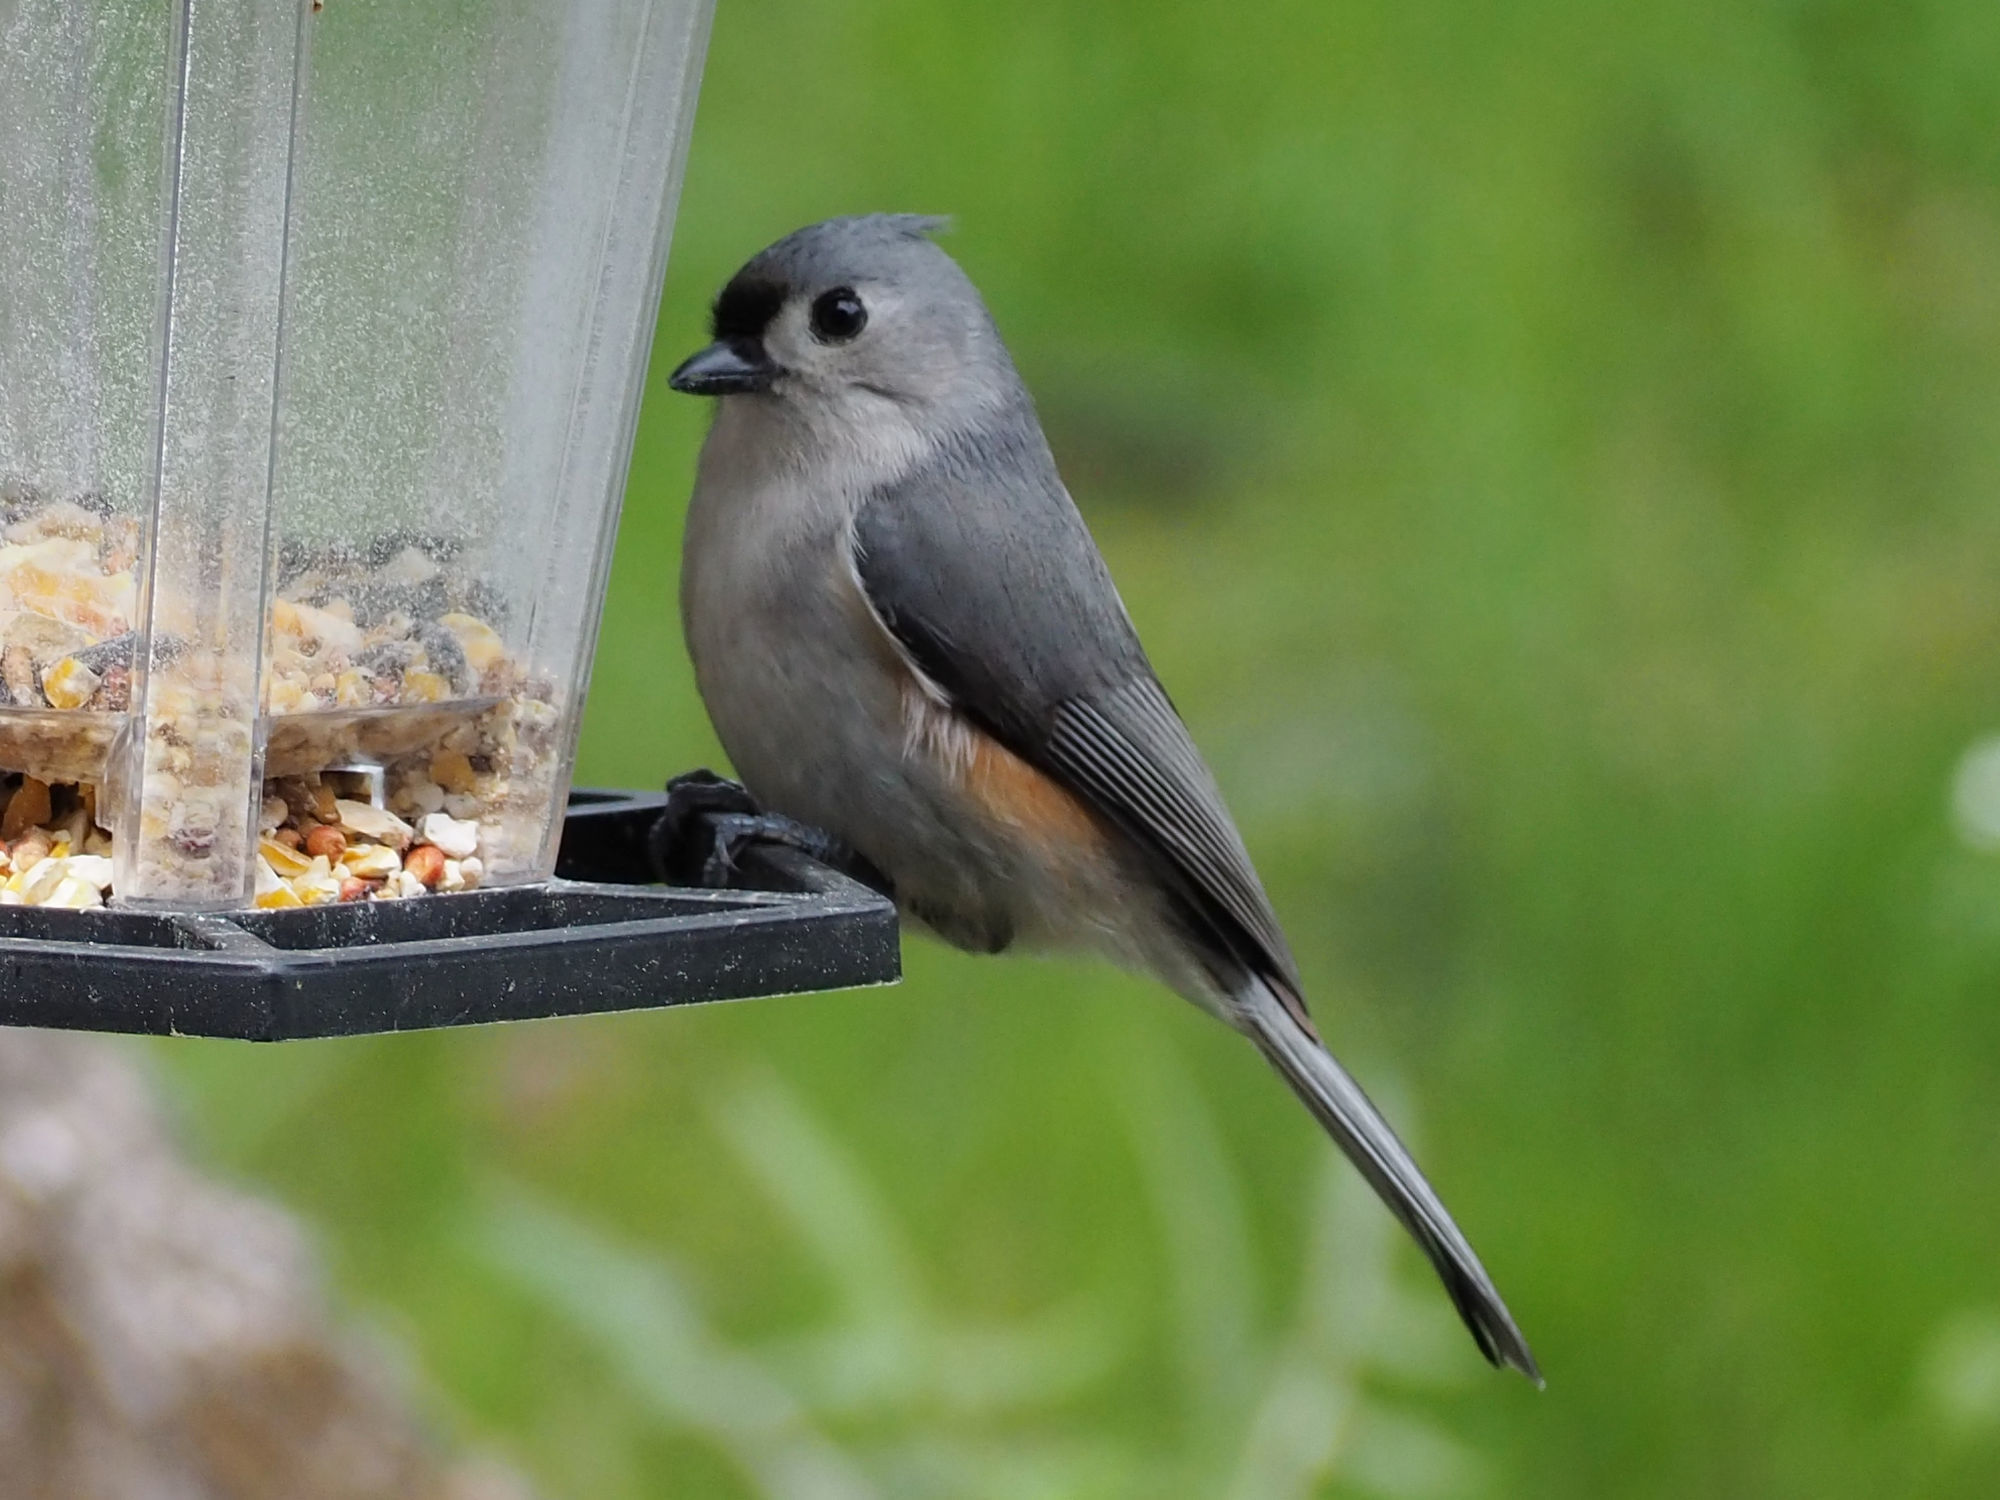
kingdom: Animalia
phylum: Chordata
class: Aves
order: Passeriformes
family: Paridae
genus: Baeolophus
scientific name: Baeolophus bicolor
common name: Tufted titmouse
